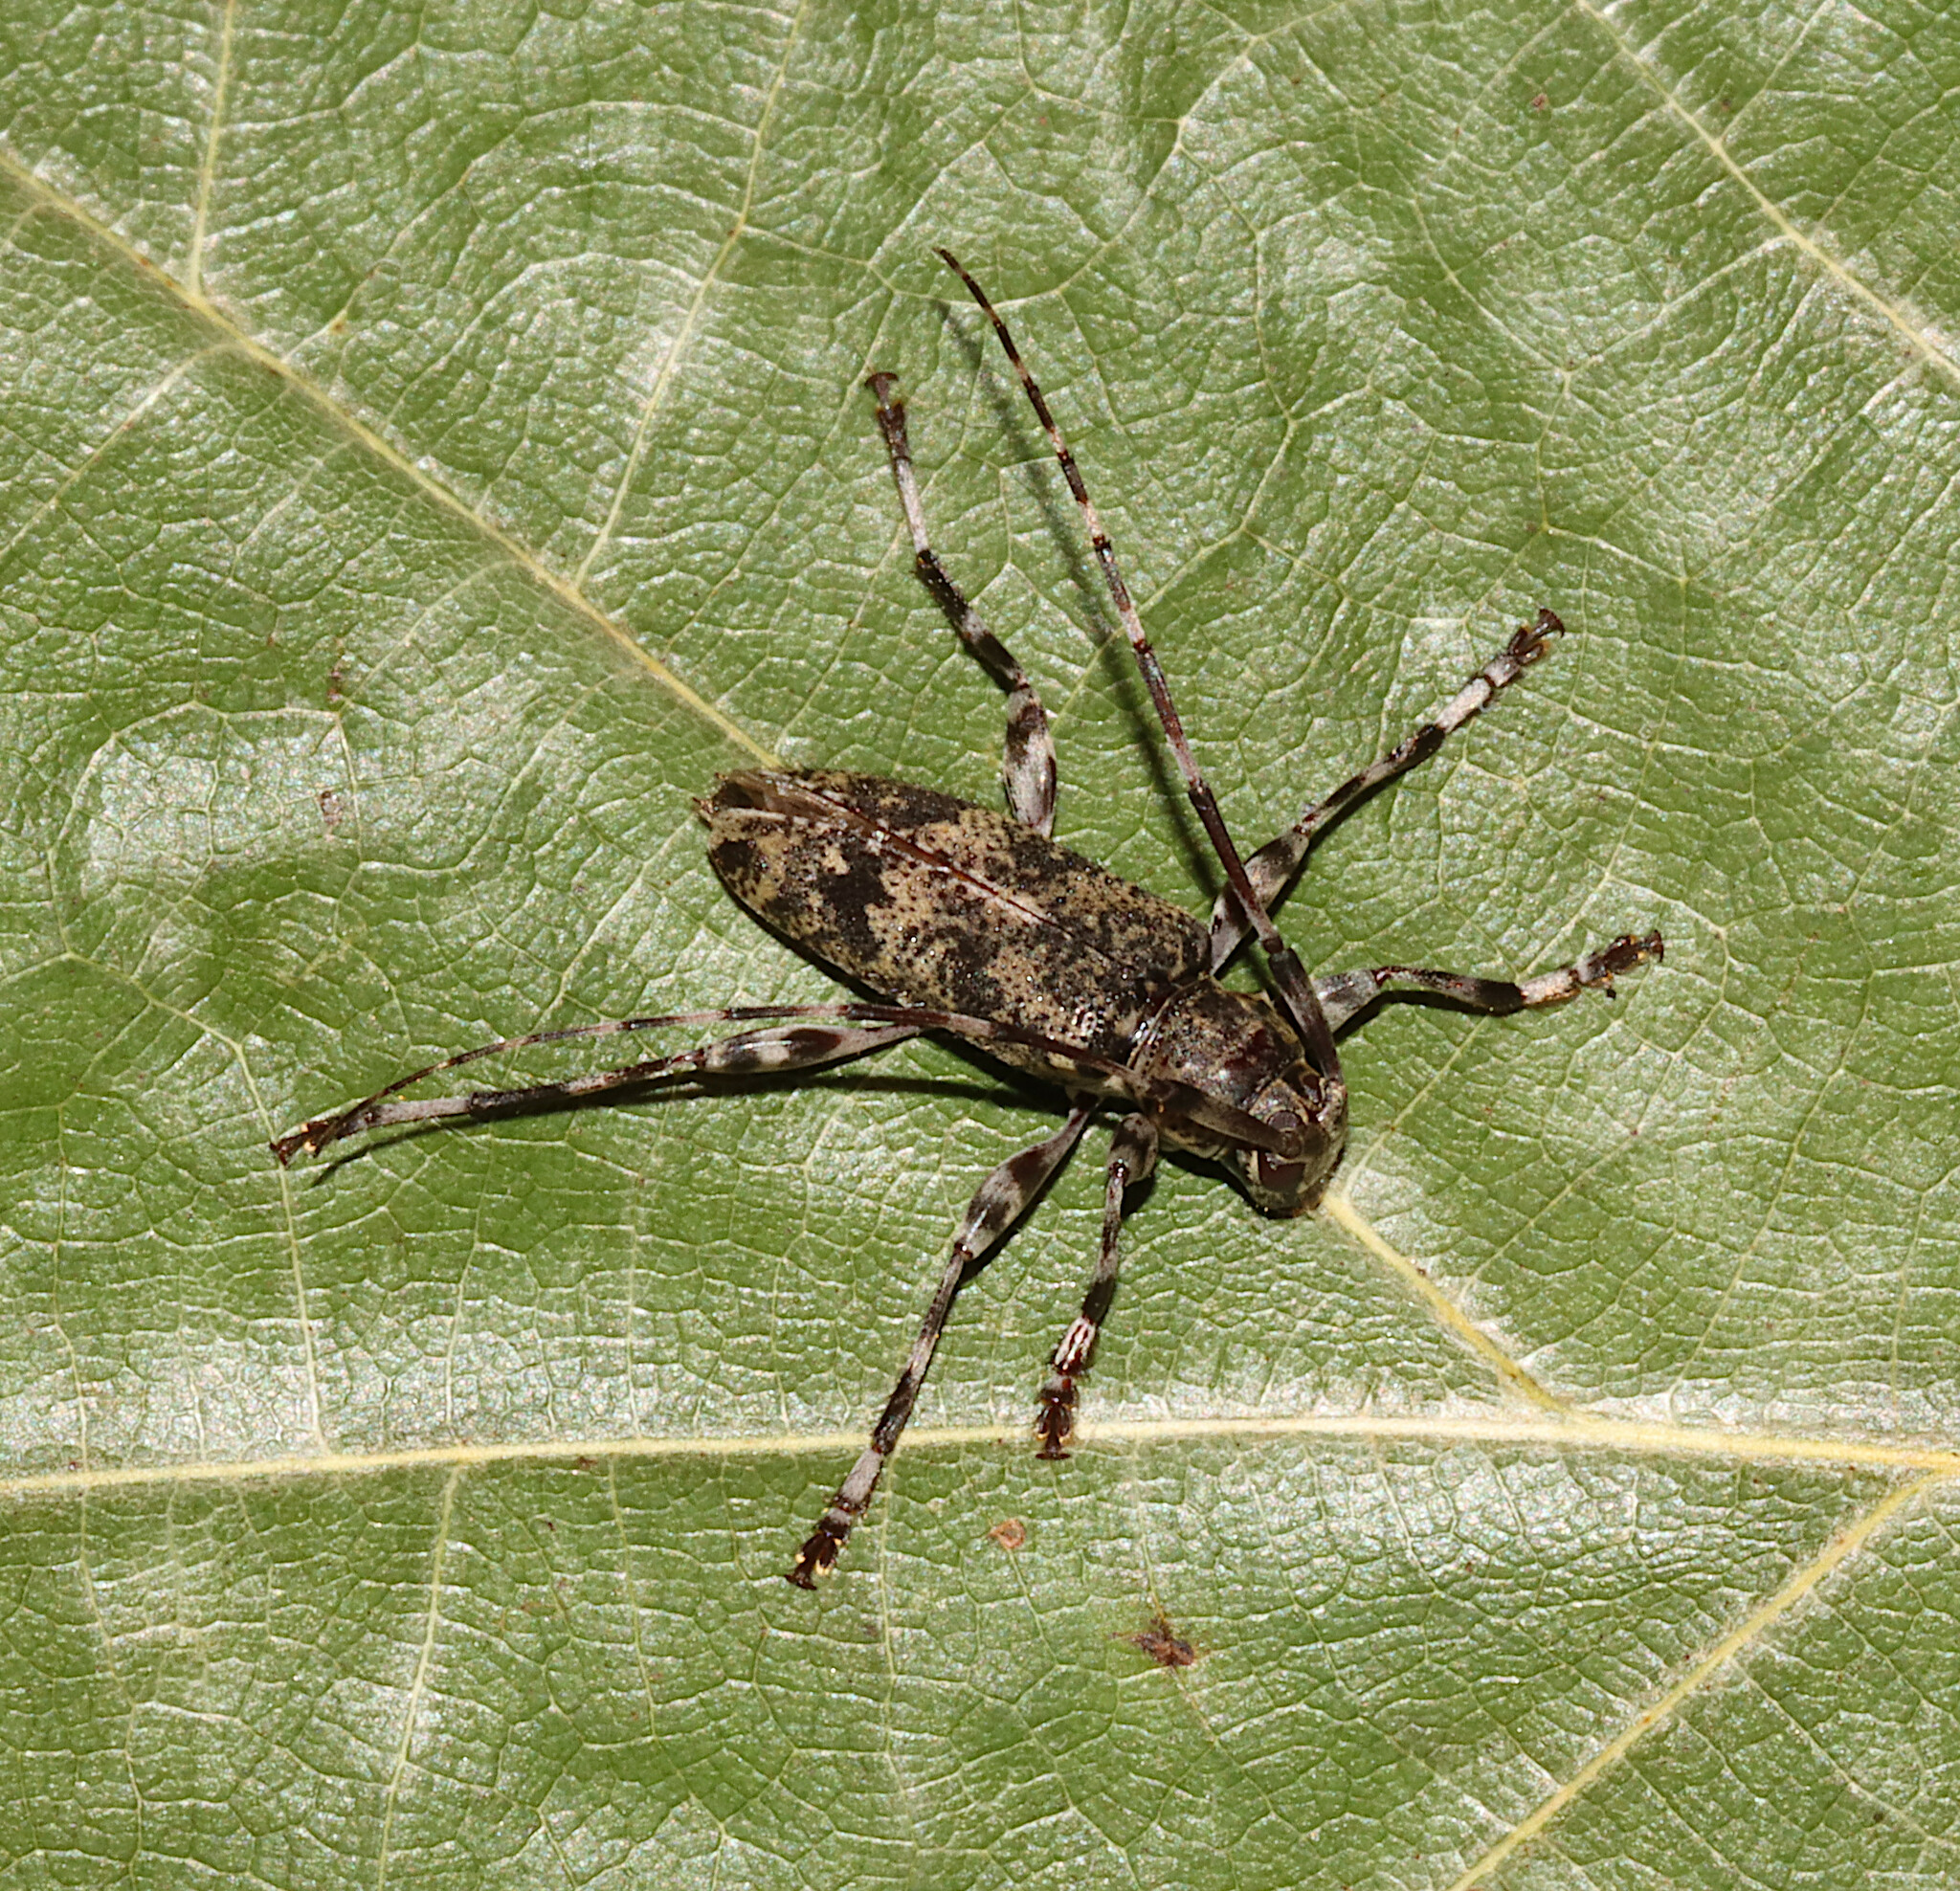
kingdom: Animalia
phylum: Arthropoda
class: Insecta
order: Coleoptera
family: Cerambycidae
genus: Graphisurus
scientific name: Graphisurus fasciatus
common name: Banded graphisurus
